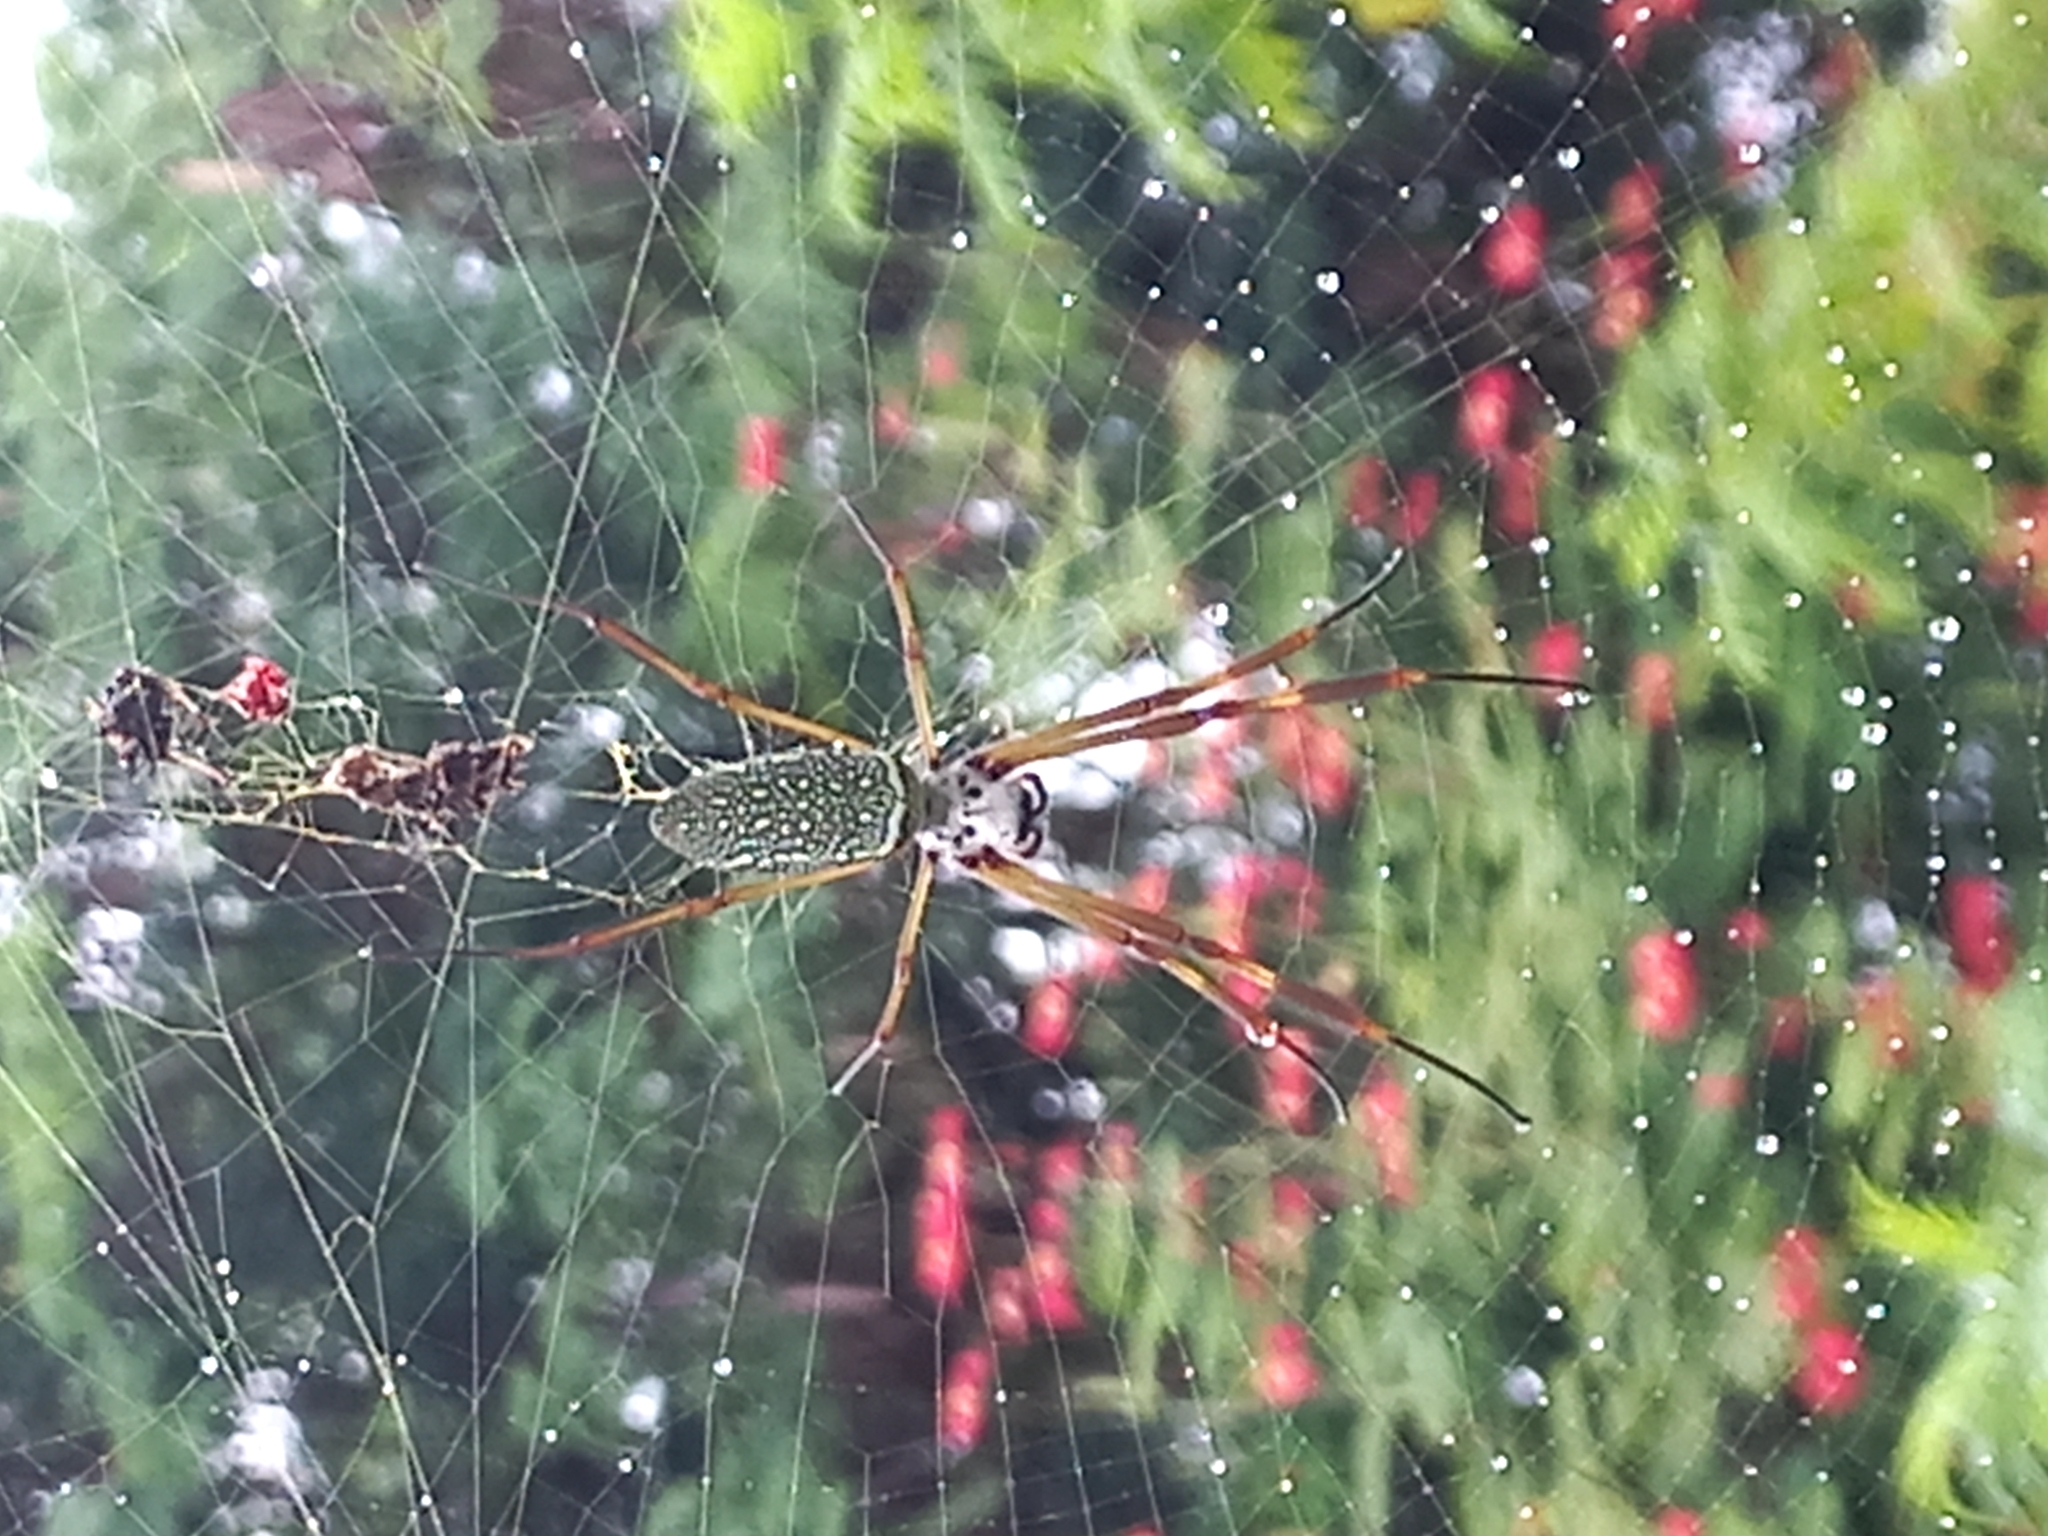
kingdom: Animalia
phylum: Arthropoda
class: Arachnida
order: Araneae
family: Araneidae
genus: Trichonephila
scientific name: Trichonephila clavipes
